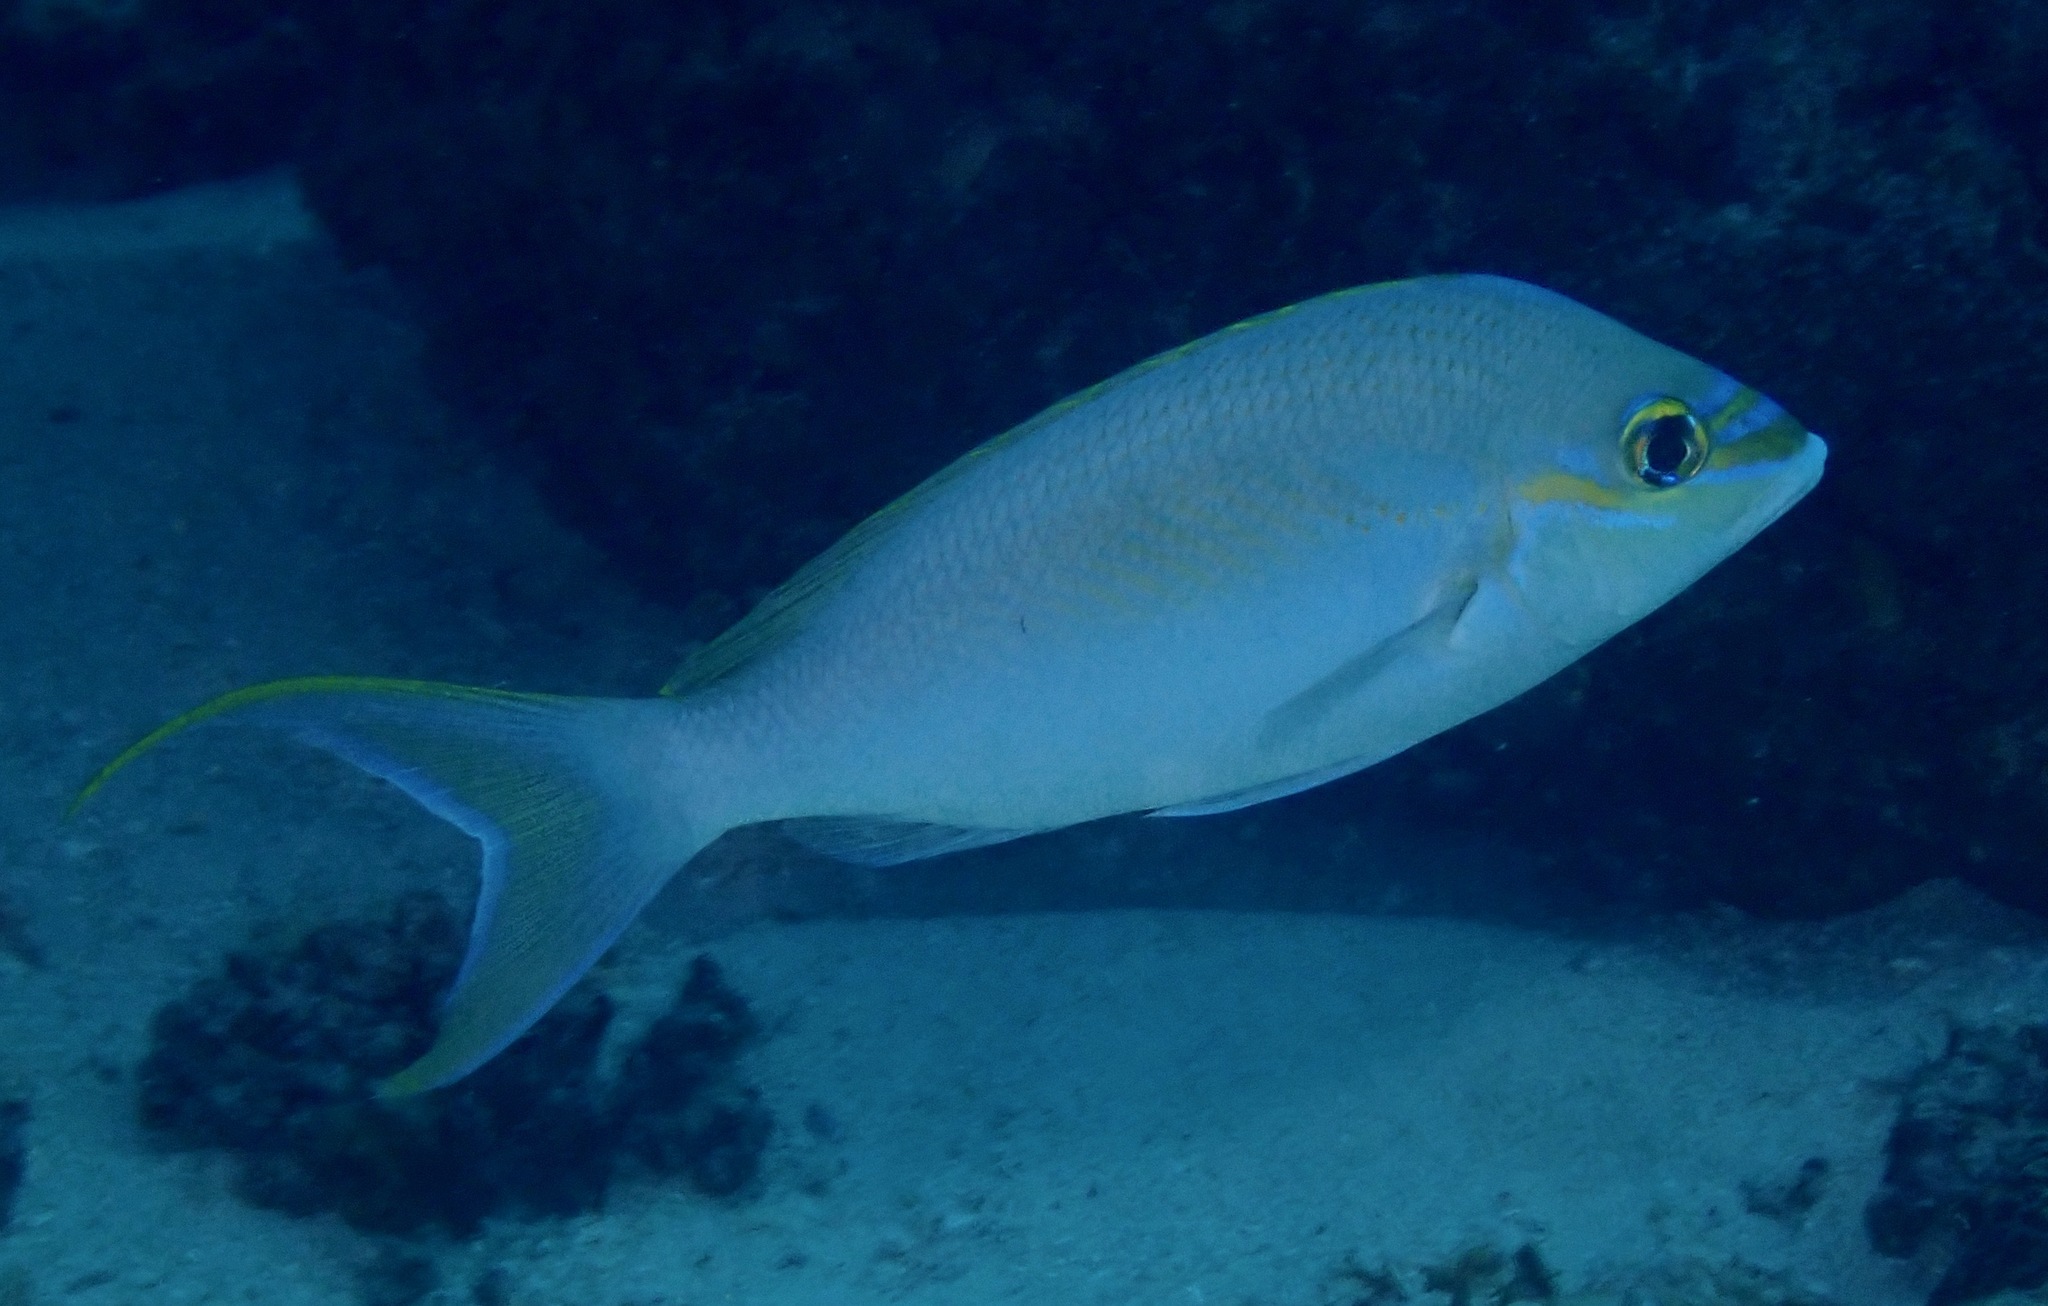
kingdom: Animalia
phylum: Chordata
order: Perciformes
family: Nemipteridae
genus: Scolopsis
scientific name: Scolopsis monogramma
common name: Monogrammed monocle bream
